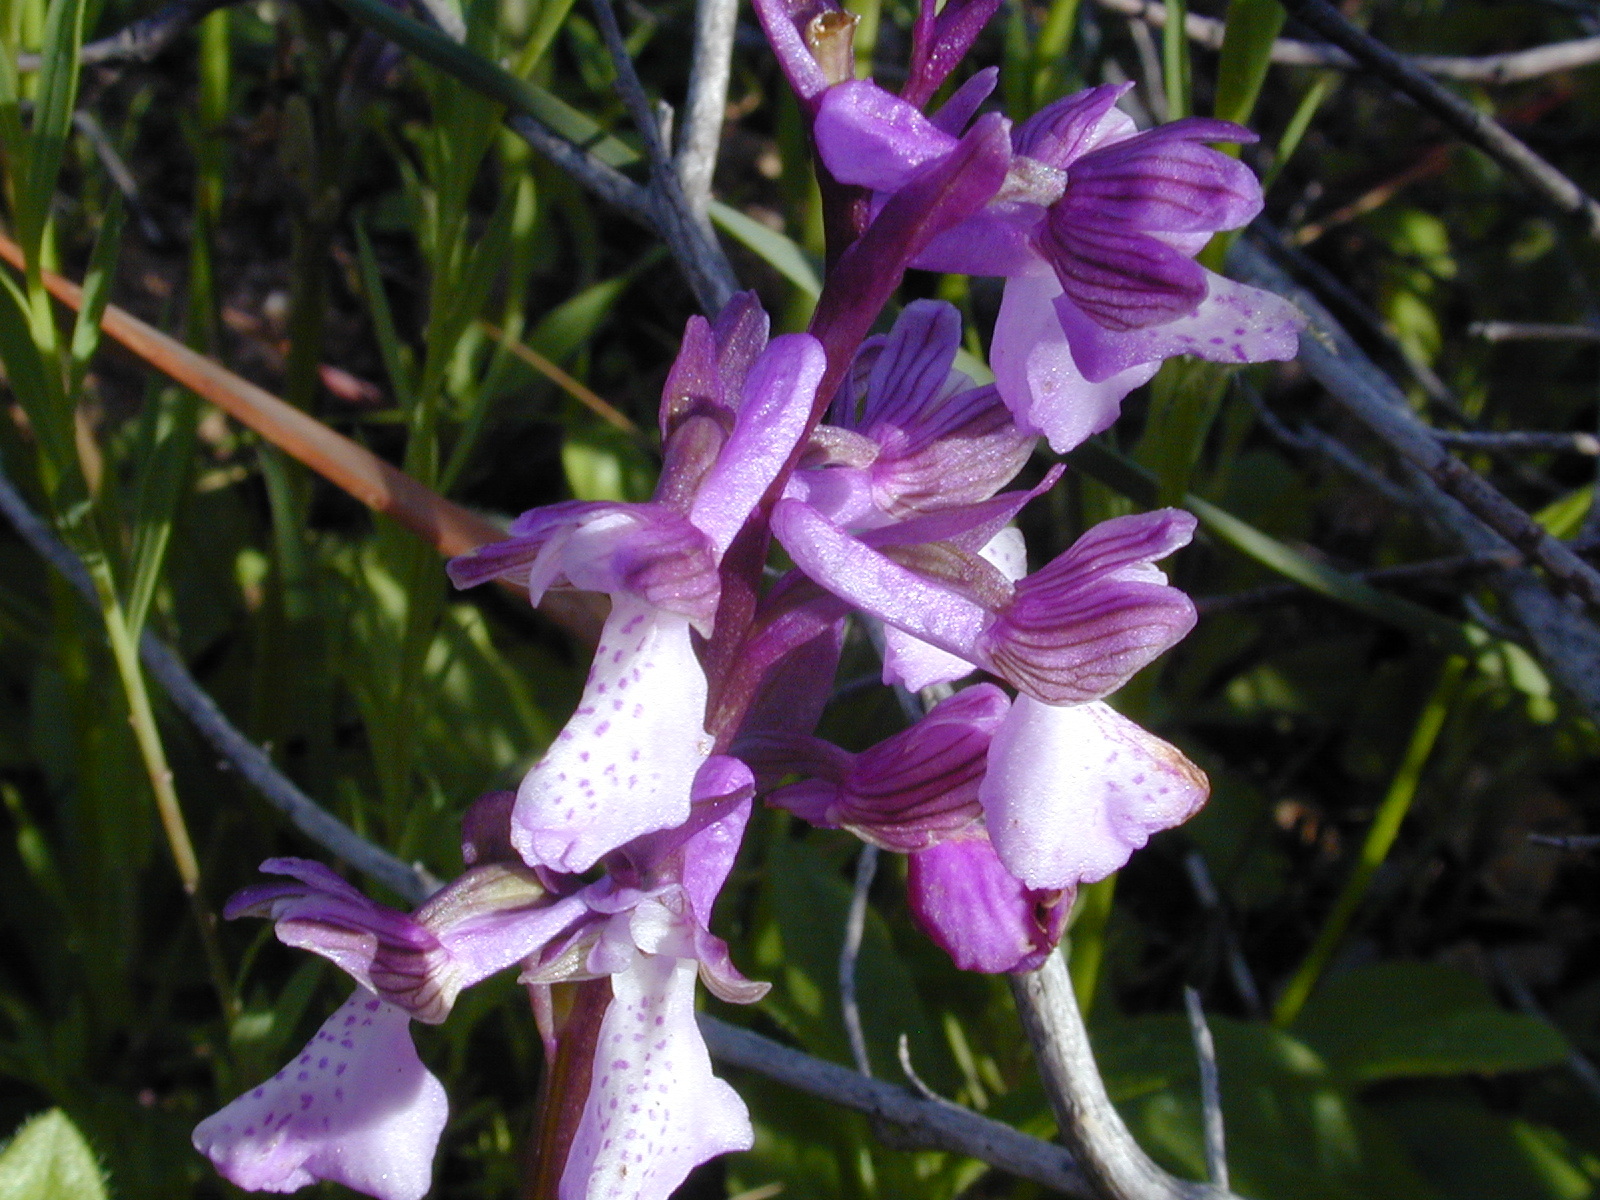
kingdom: Plantae
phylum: Tracheophyta
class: Liliopsida
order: Asparagales
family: Orchidaceae
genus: Anacamptis
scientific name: Anacamptis morio
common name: Green-winged orchid
